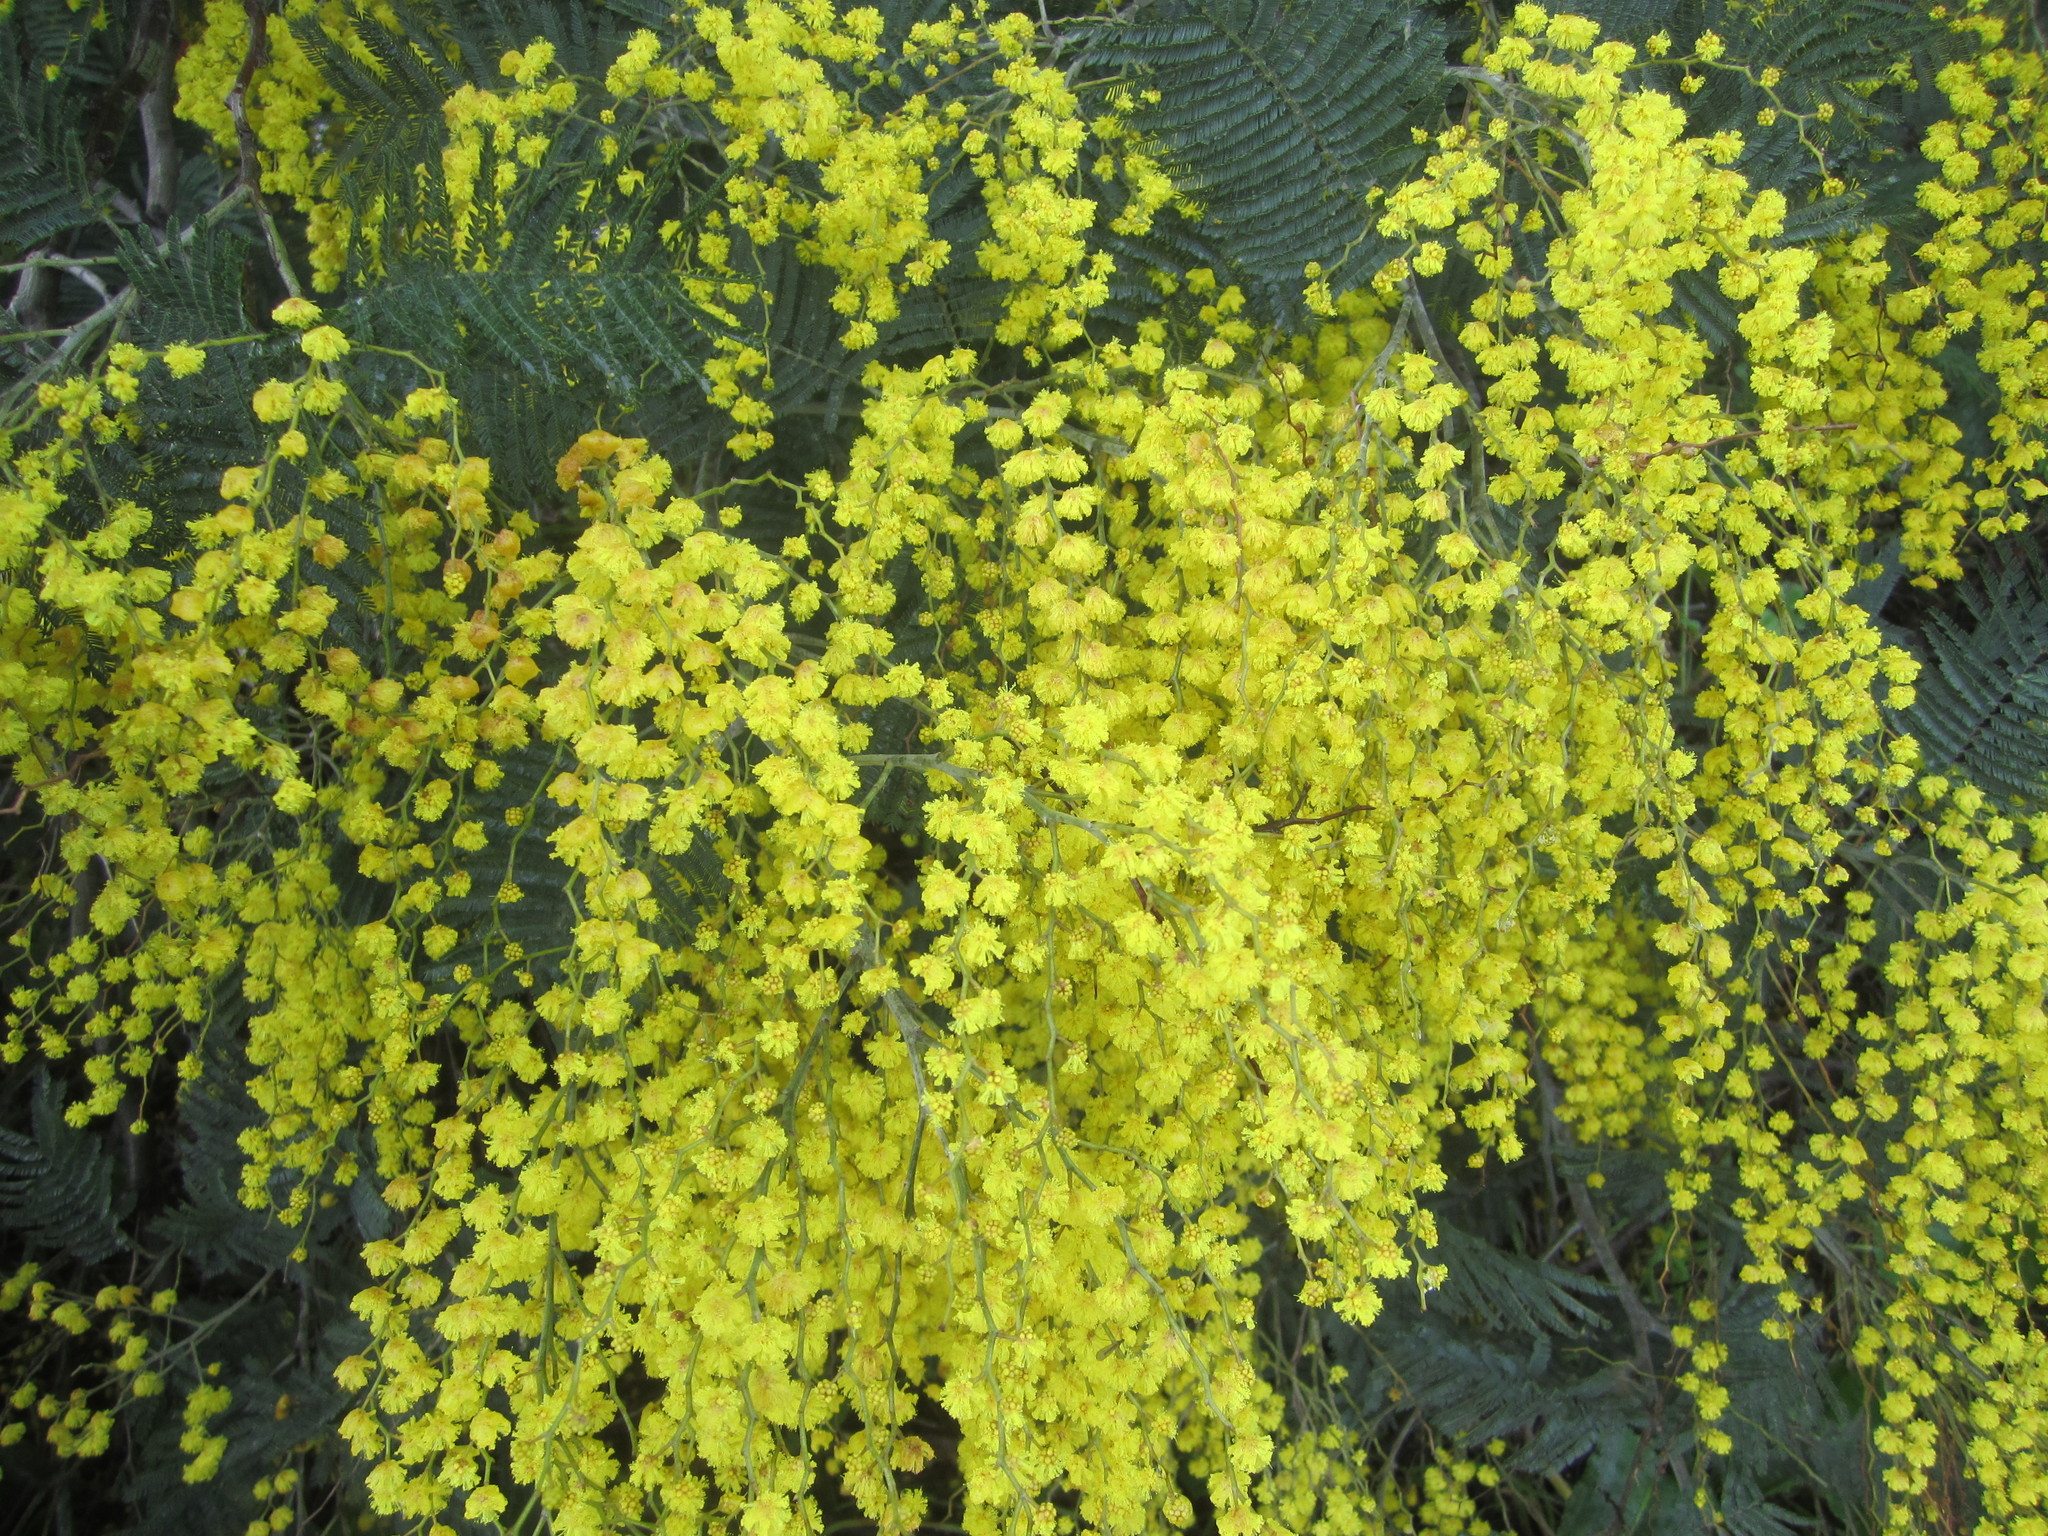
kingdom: Plantae
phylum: Tracheophyta
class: Magnoliopsida
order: Fabales
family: Fabaceae
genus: Acacia
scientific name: Acacia dealbata
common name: Silver wattle
